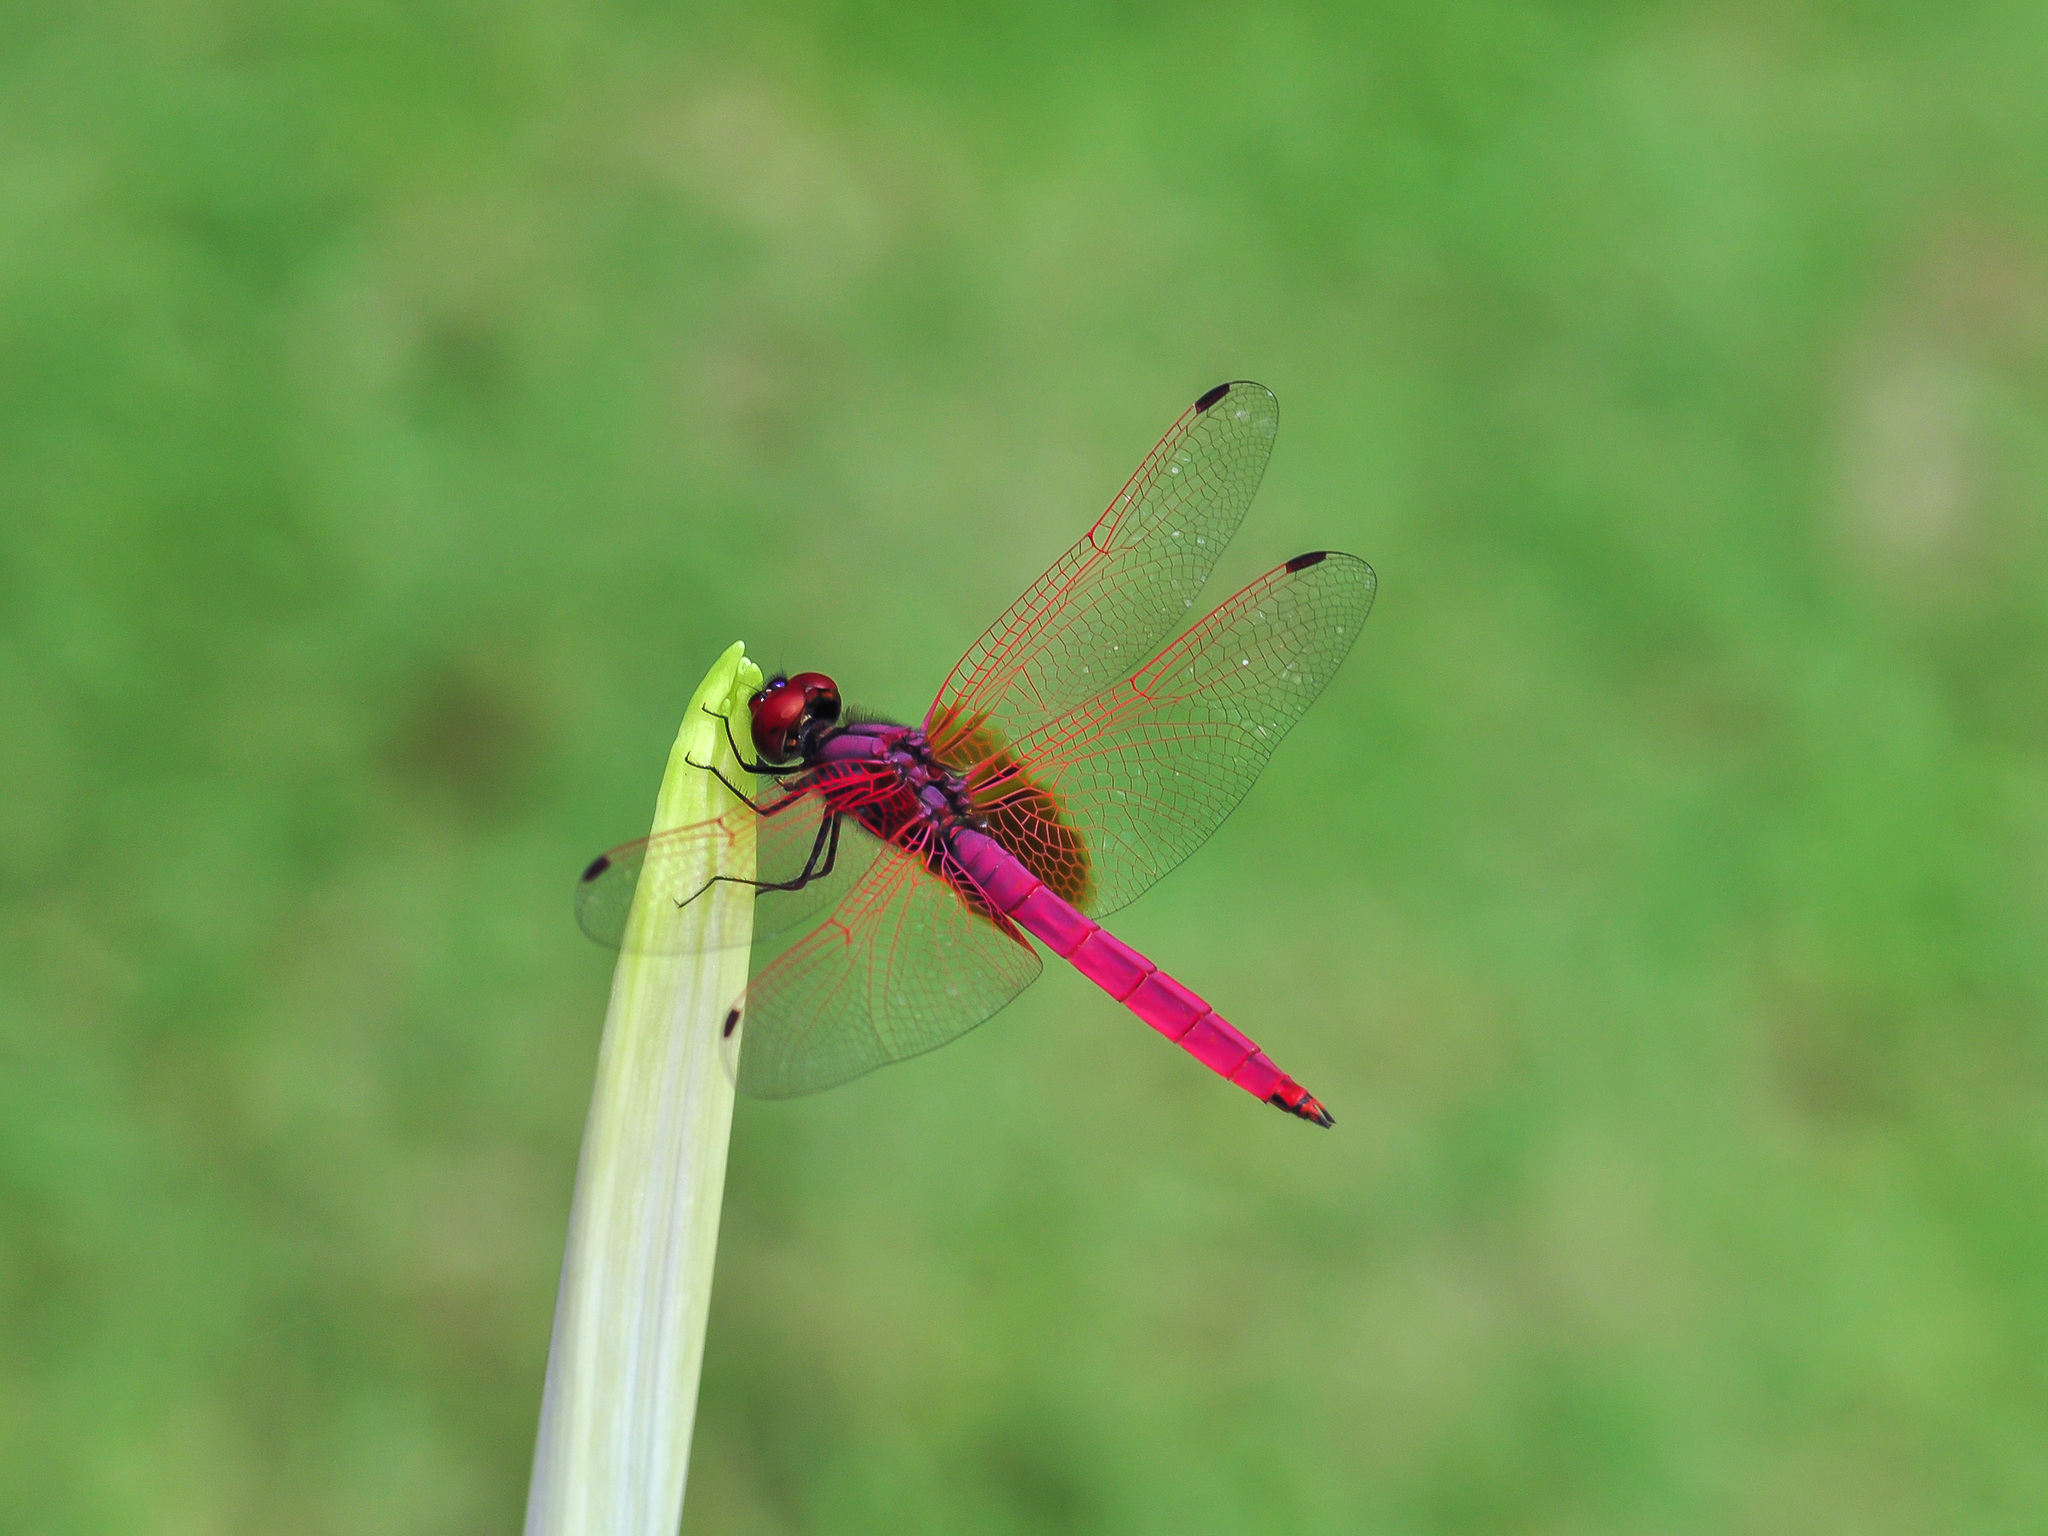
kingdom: Animalia
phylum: Arthropoda
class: Insecta
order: Odonata
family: Libellulidae
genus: Trithemis
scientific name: Trithemis aurora
